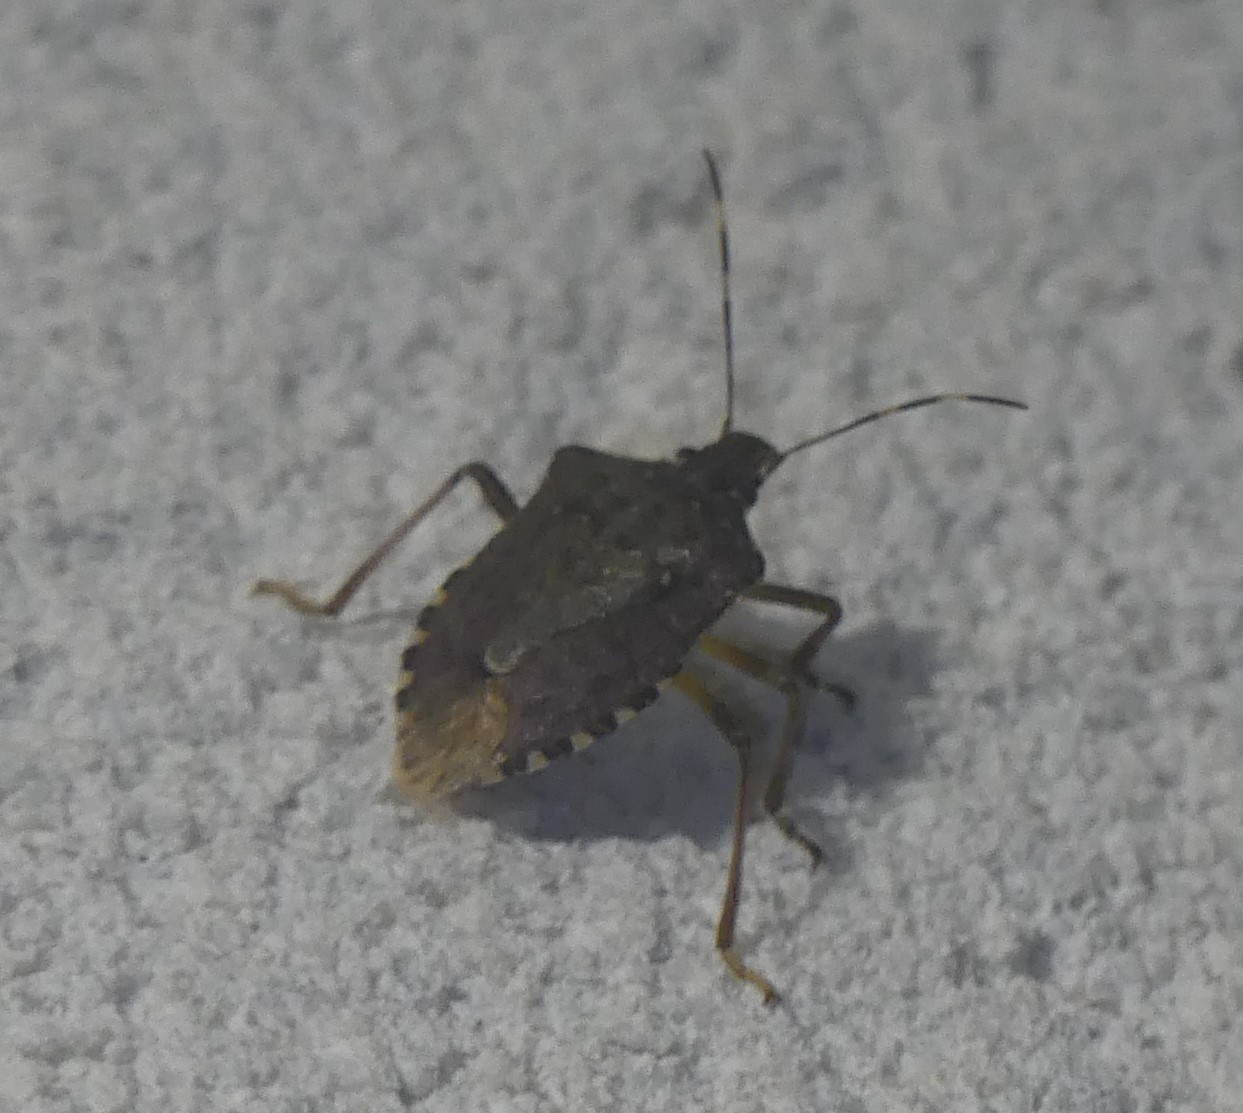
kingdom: Animalia
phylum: Arthropoda
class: Insecta
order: Hemiptera
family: Pentatomidae
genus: Halyomorpha
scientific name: Halyomorpha halys
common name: Brown marmorated stink bug
